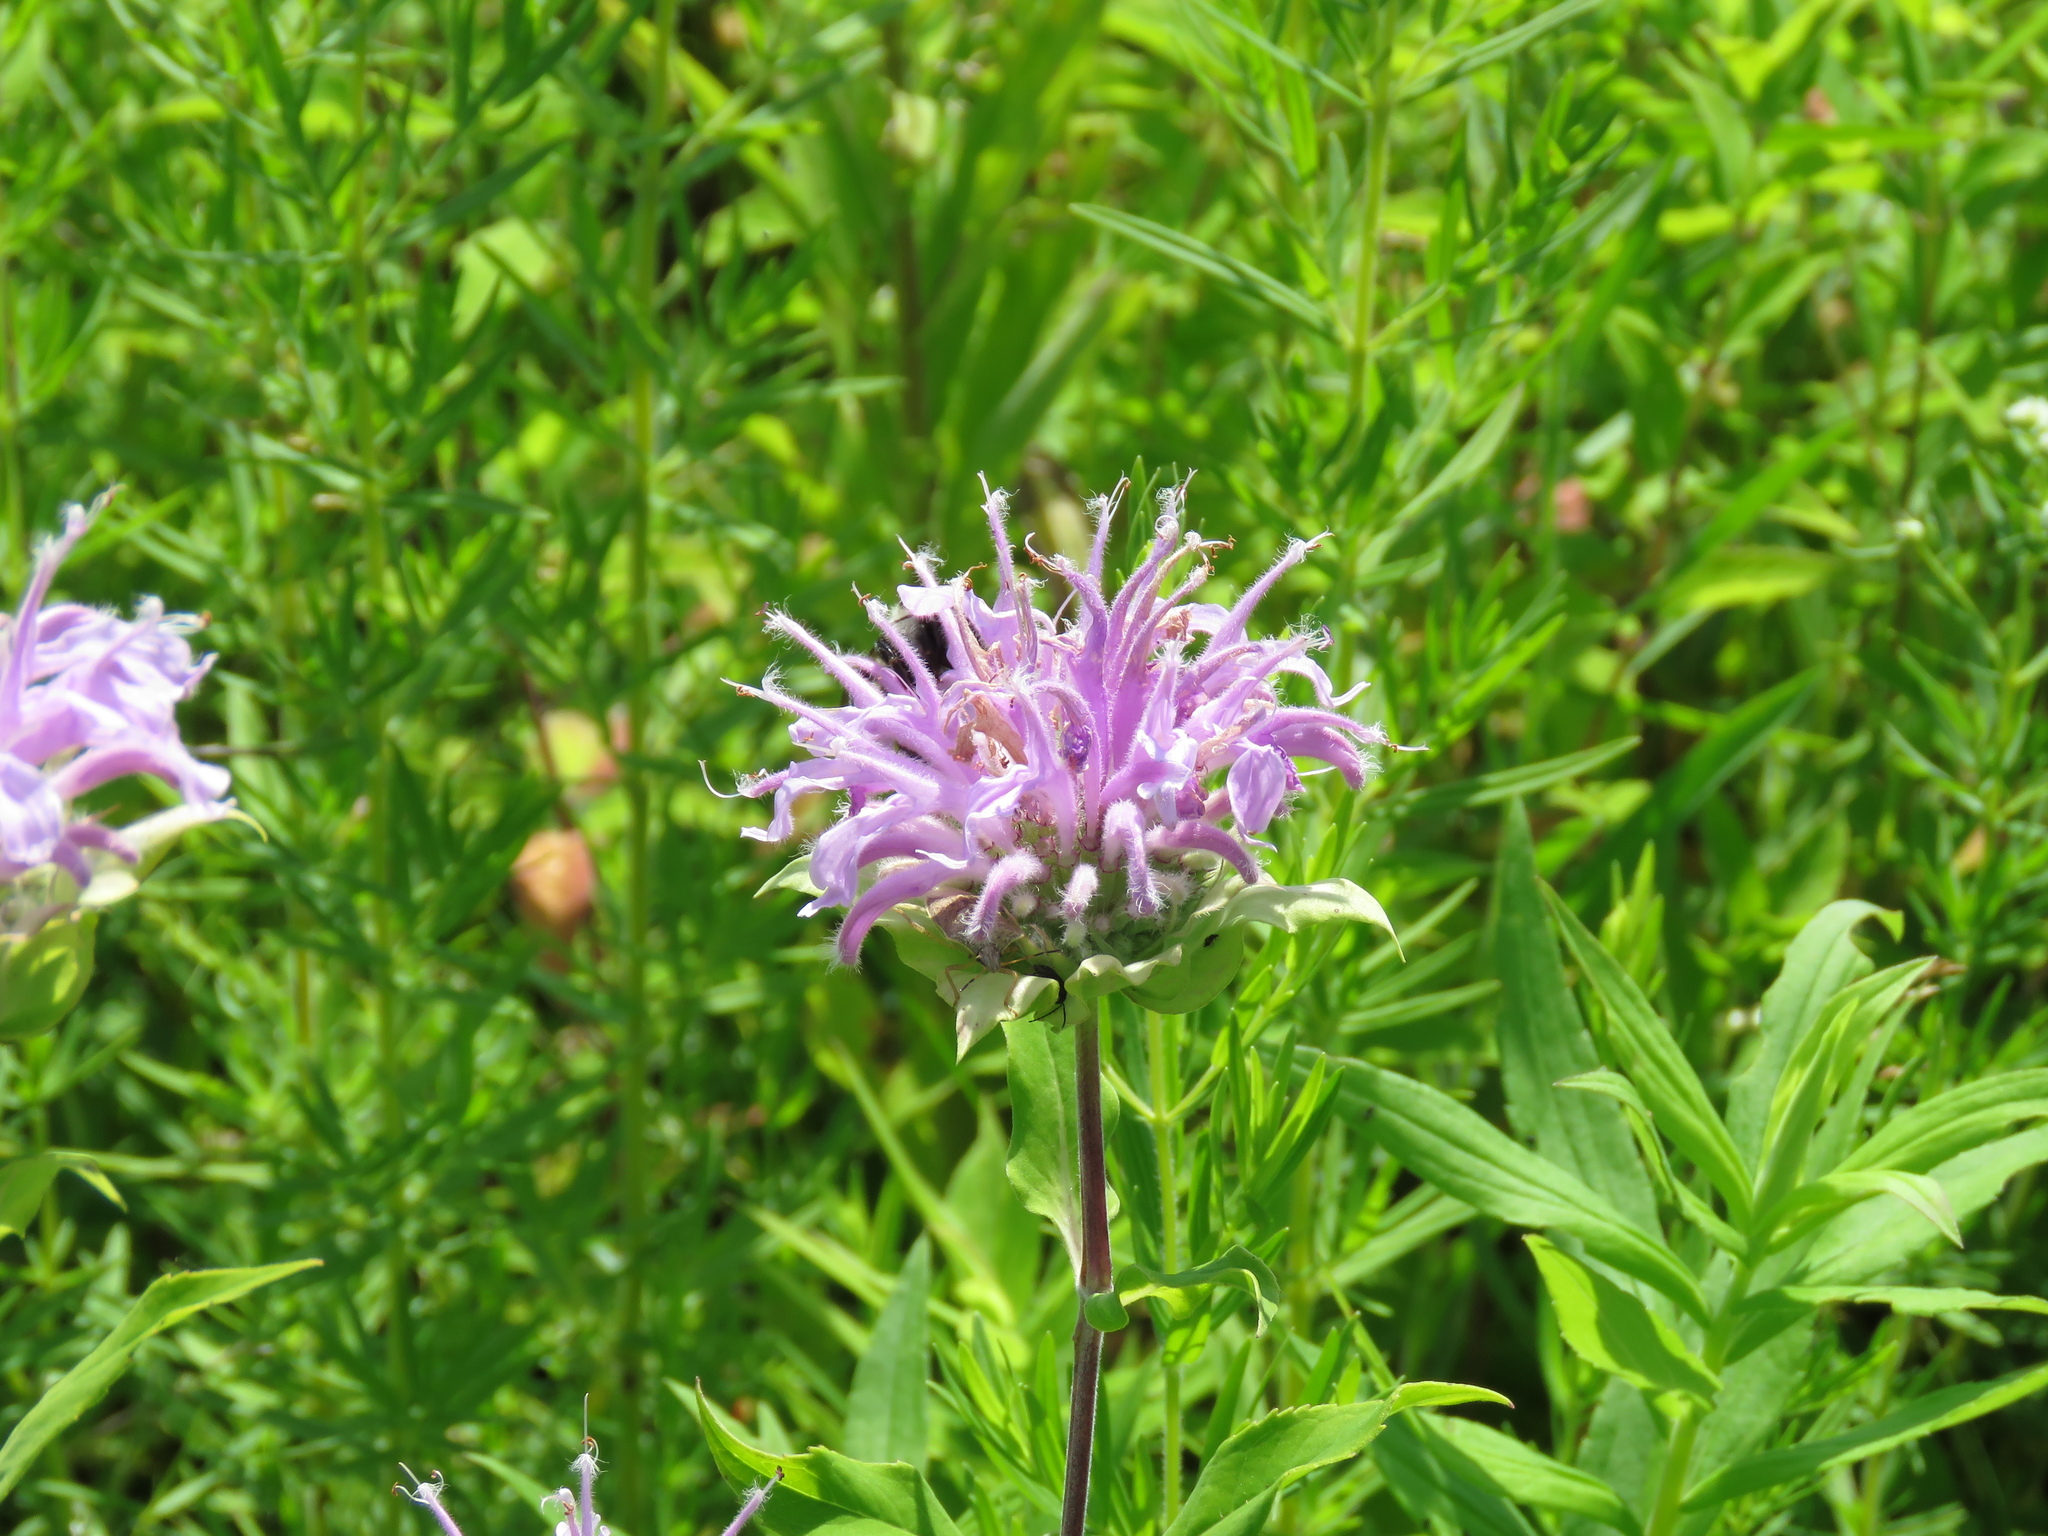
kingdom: Plantae
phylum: Tracheophyta
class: Magnoliopsida
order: Lamiales
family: Lamiaceae
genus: Monarda
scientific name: Monarda fistulosa
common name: Purple beebalm
